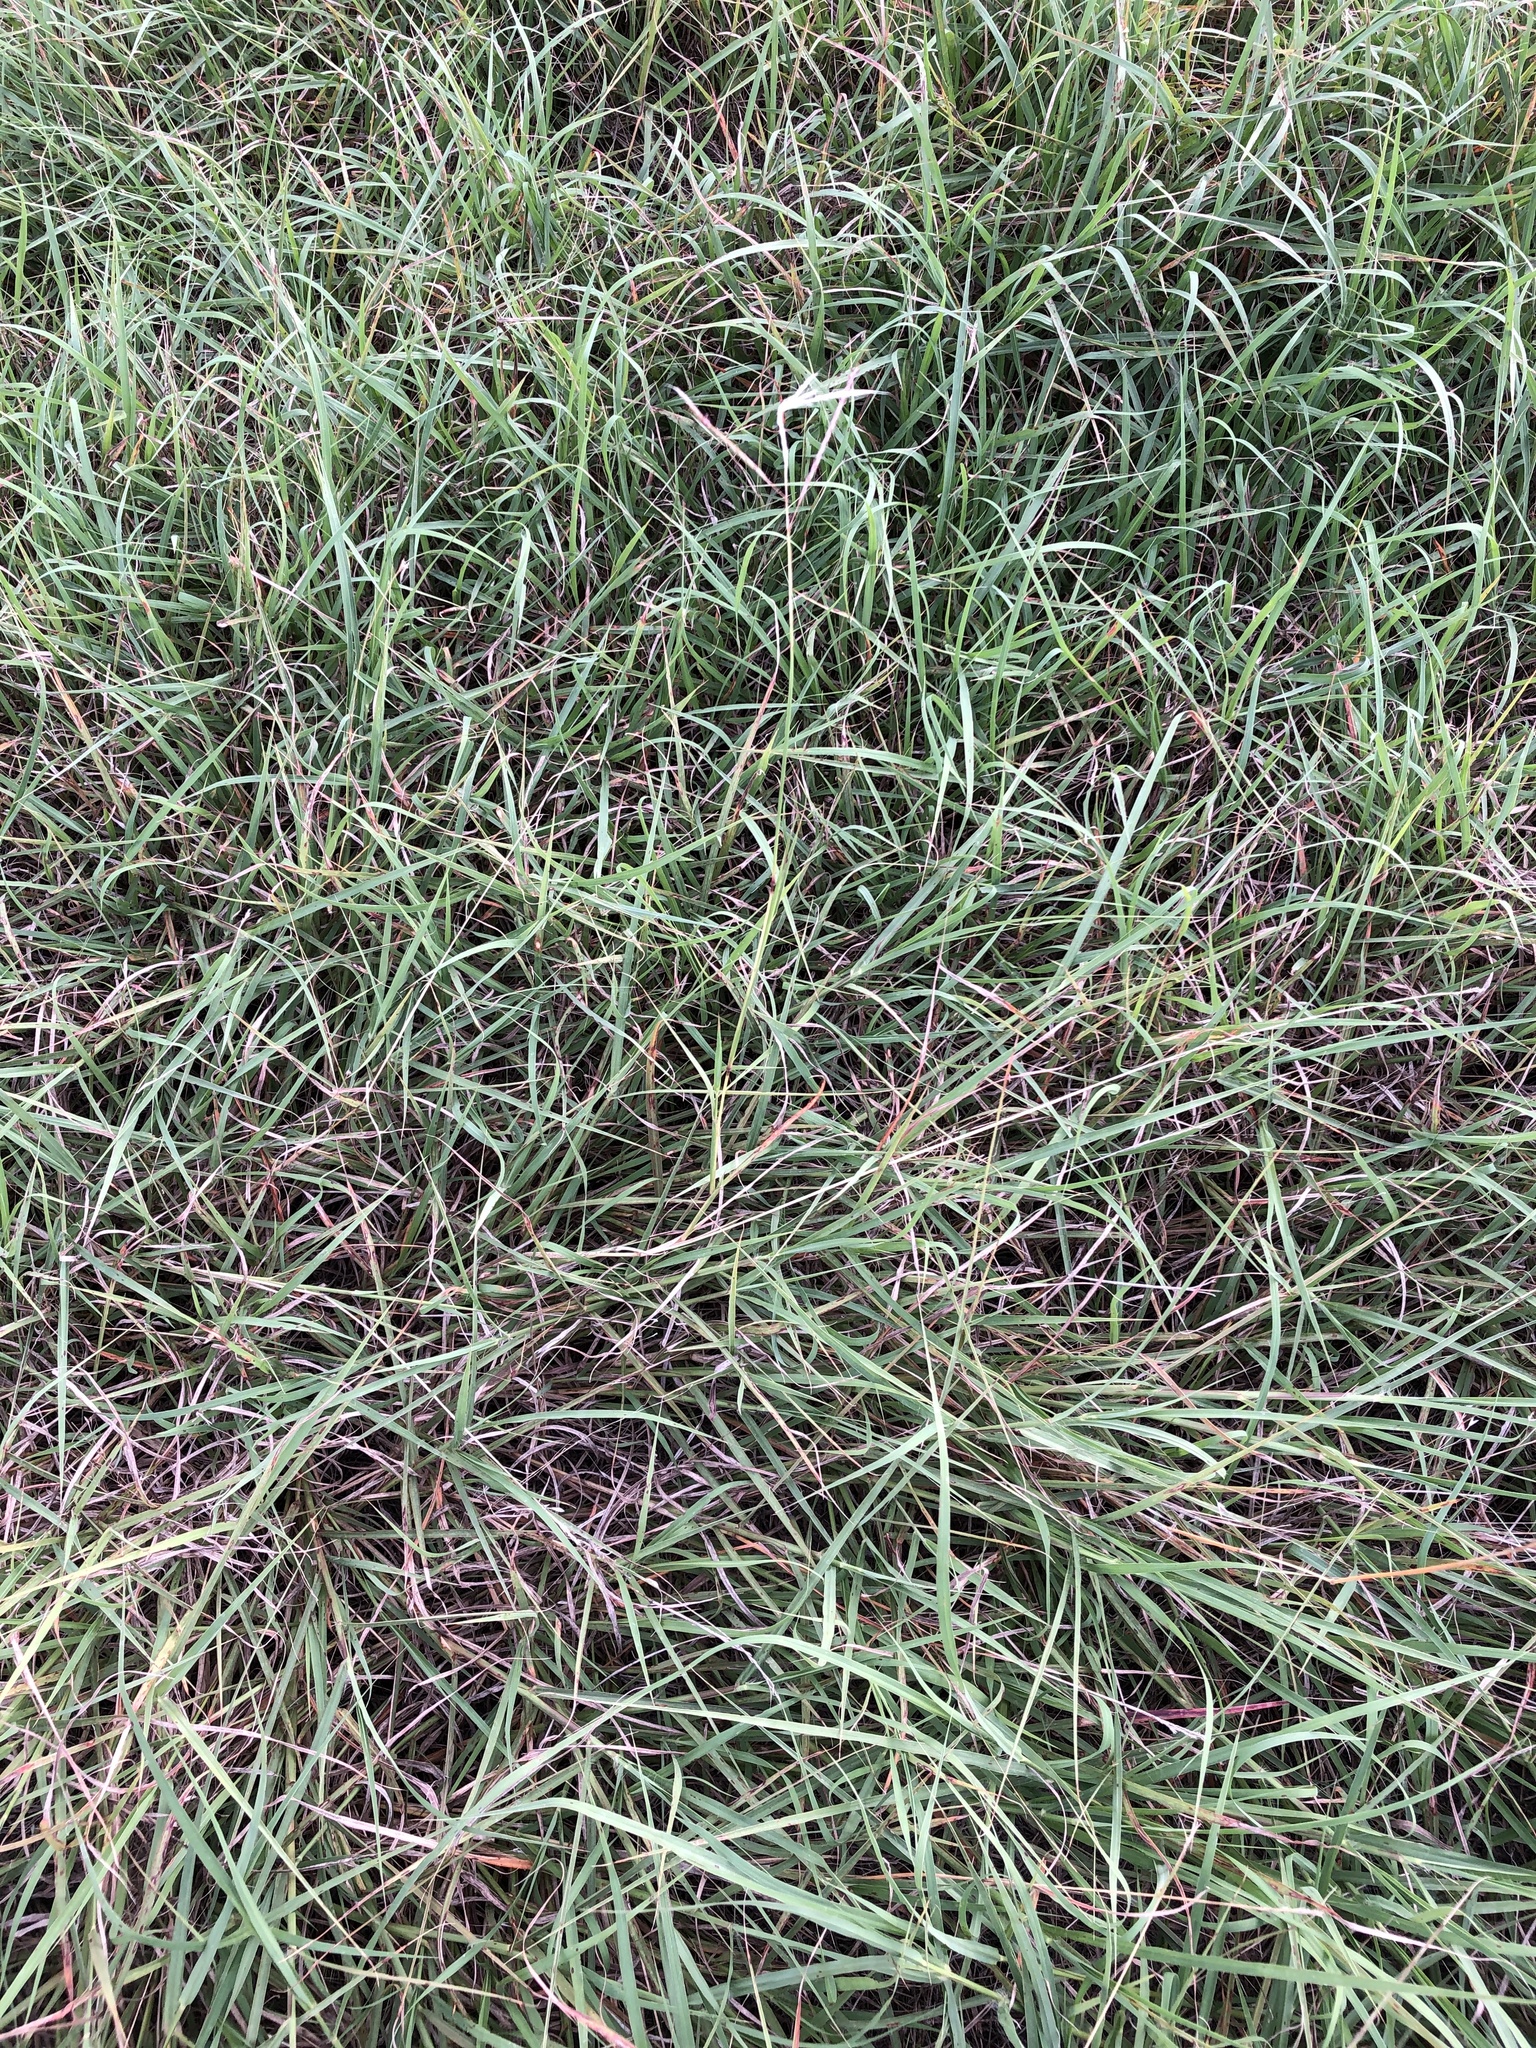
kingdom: Plantae
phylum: Tracheophyta
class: Liliopsida
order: Poales
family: Poaceae
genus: Bothriochloa
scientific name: Bothriochloa ischaemum
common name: Yellow bluestem
